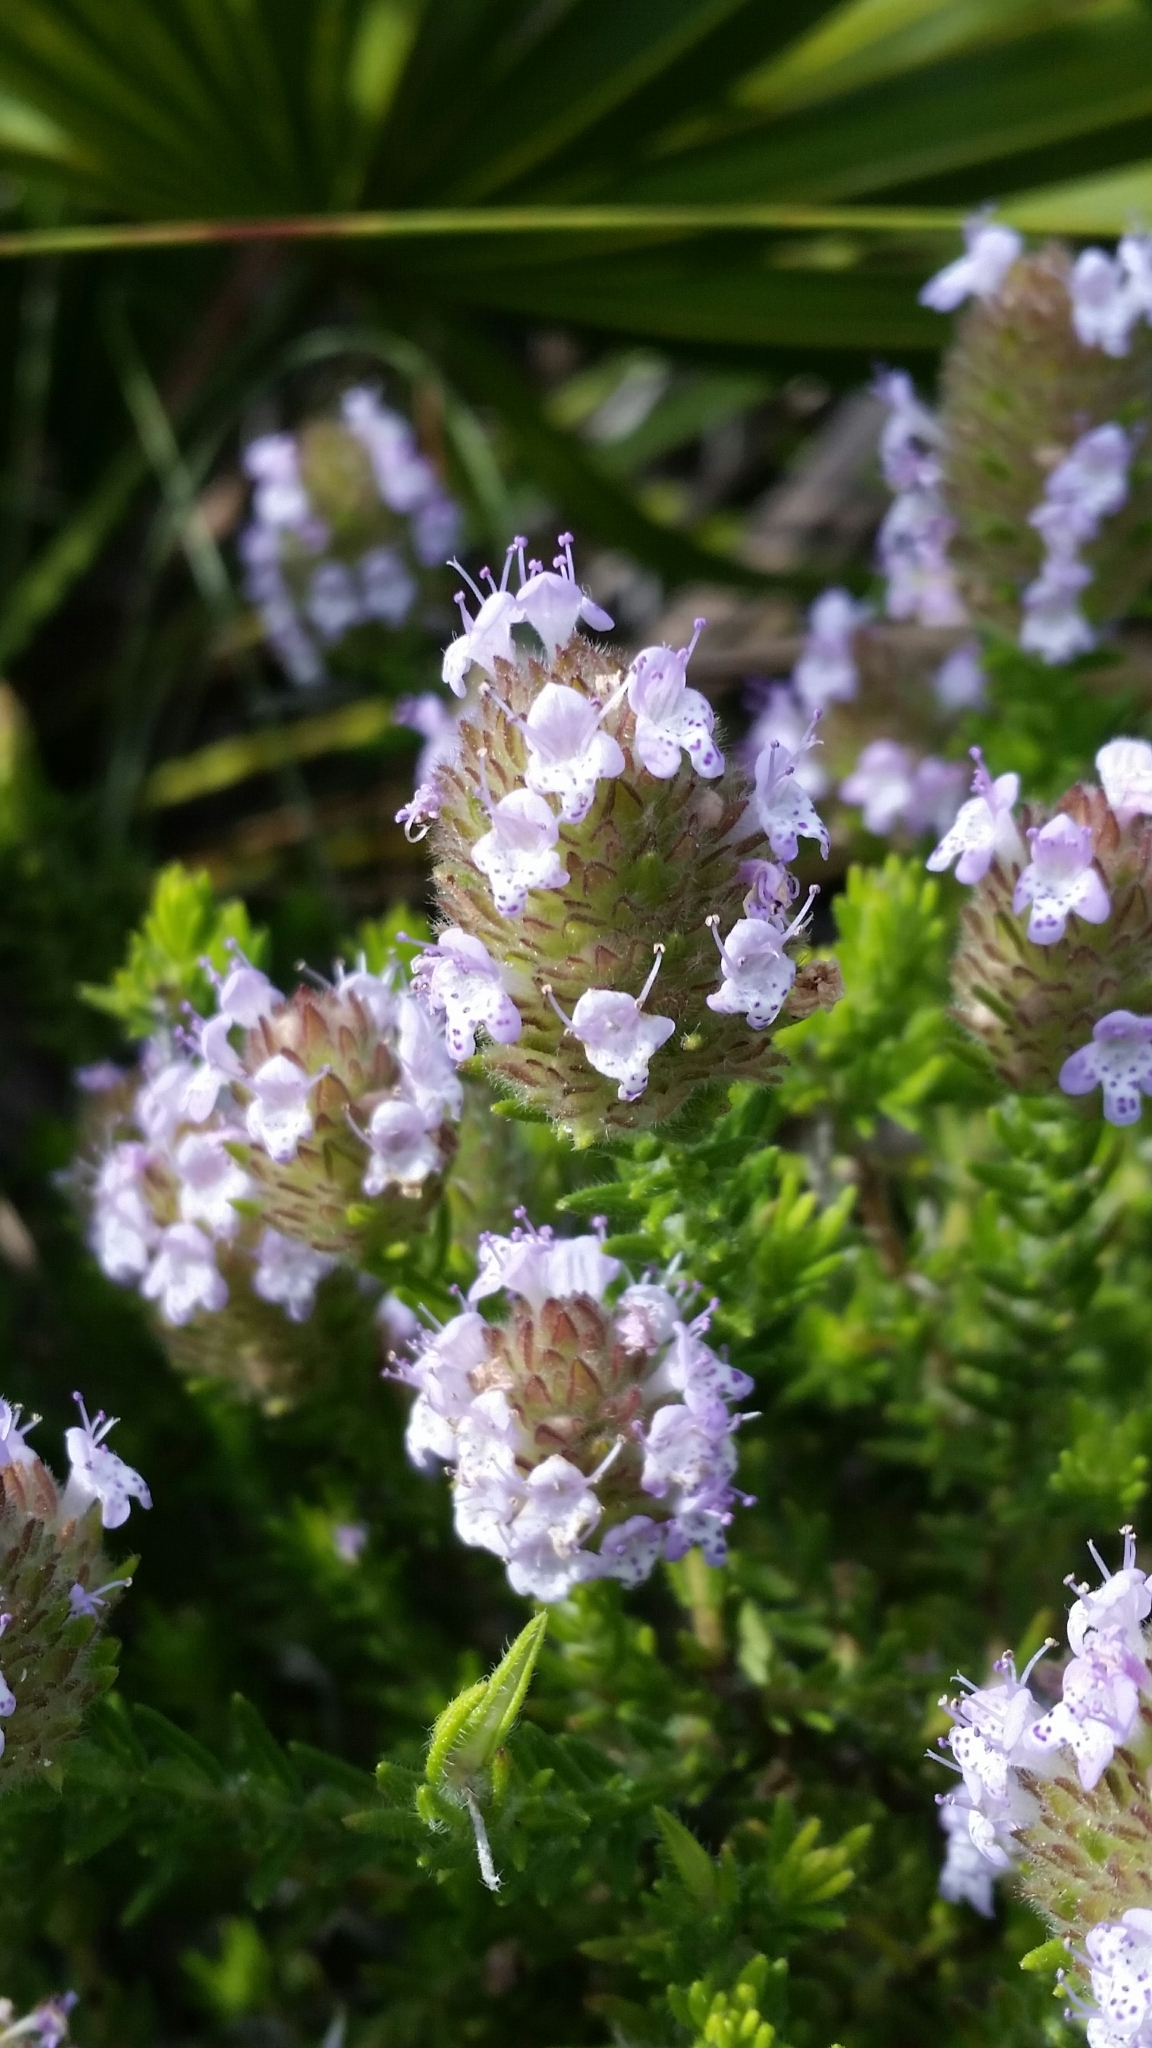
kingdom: Plantae
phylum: Tracheophyta
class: Magnoliopsida
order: Lamiales
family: Lamiaceae
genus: Piloblephis
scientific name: Piloblephis rigida
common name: Wild pennyroyal
